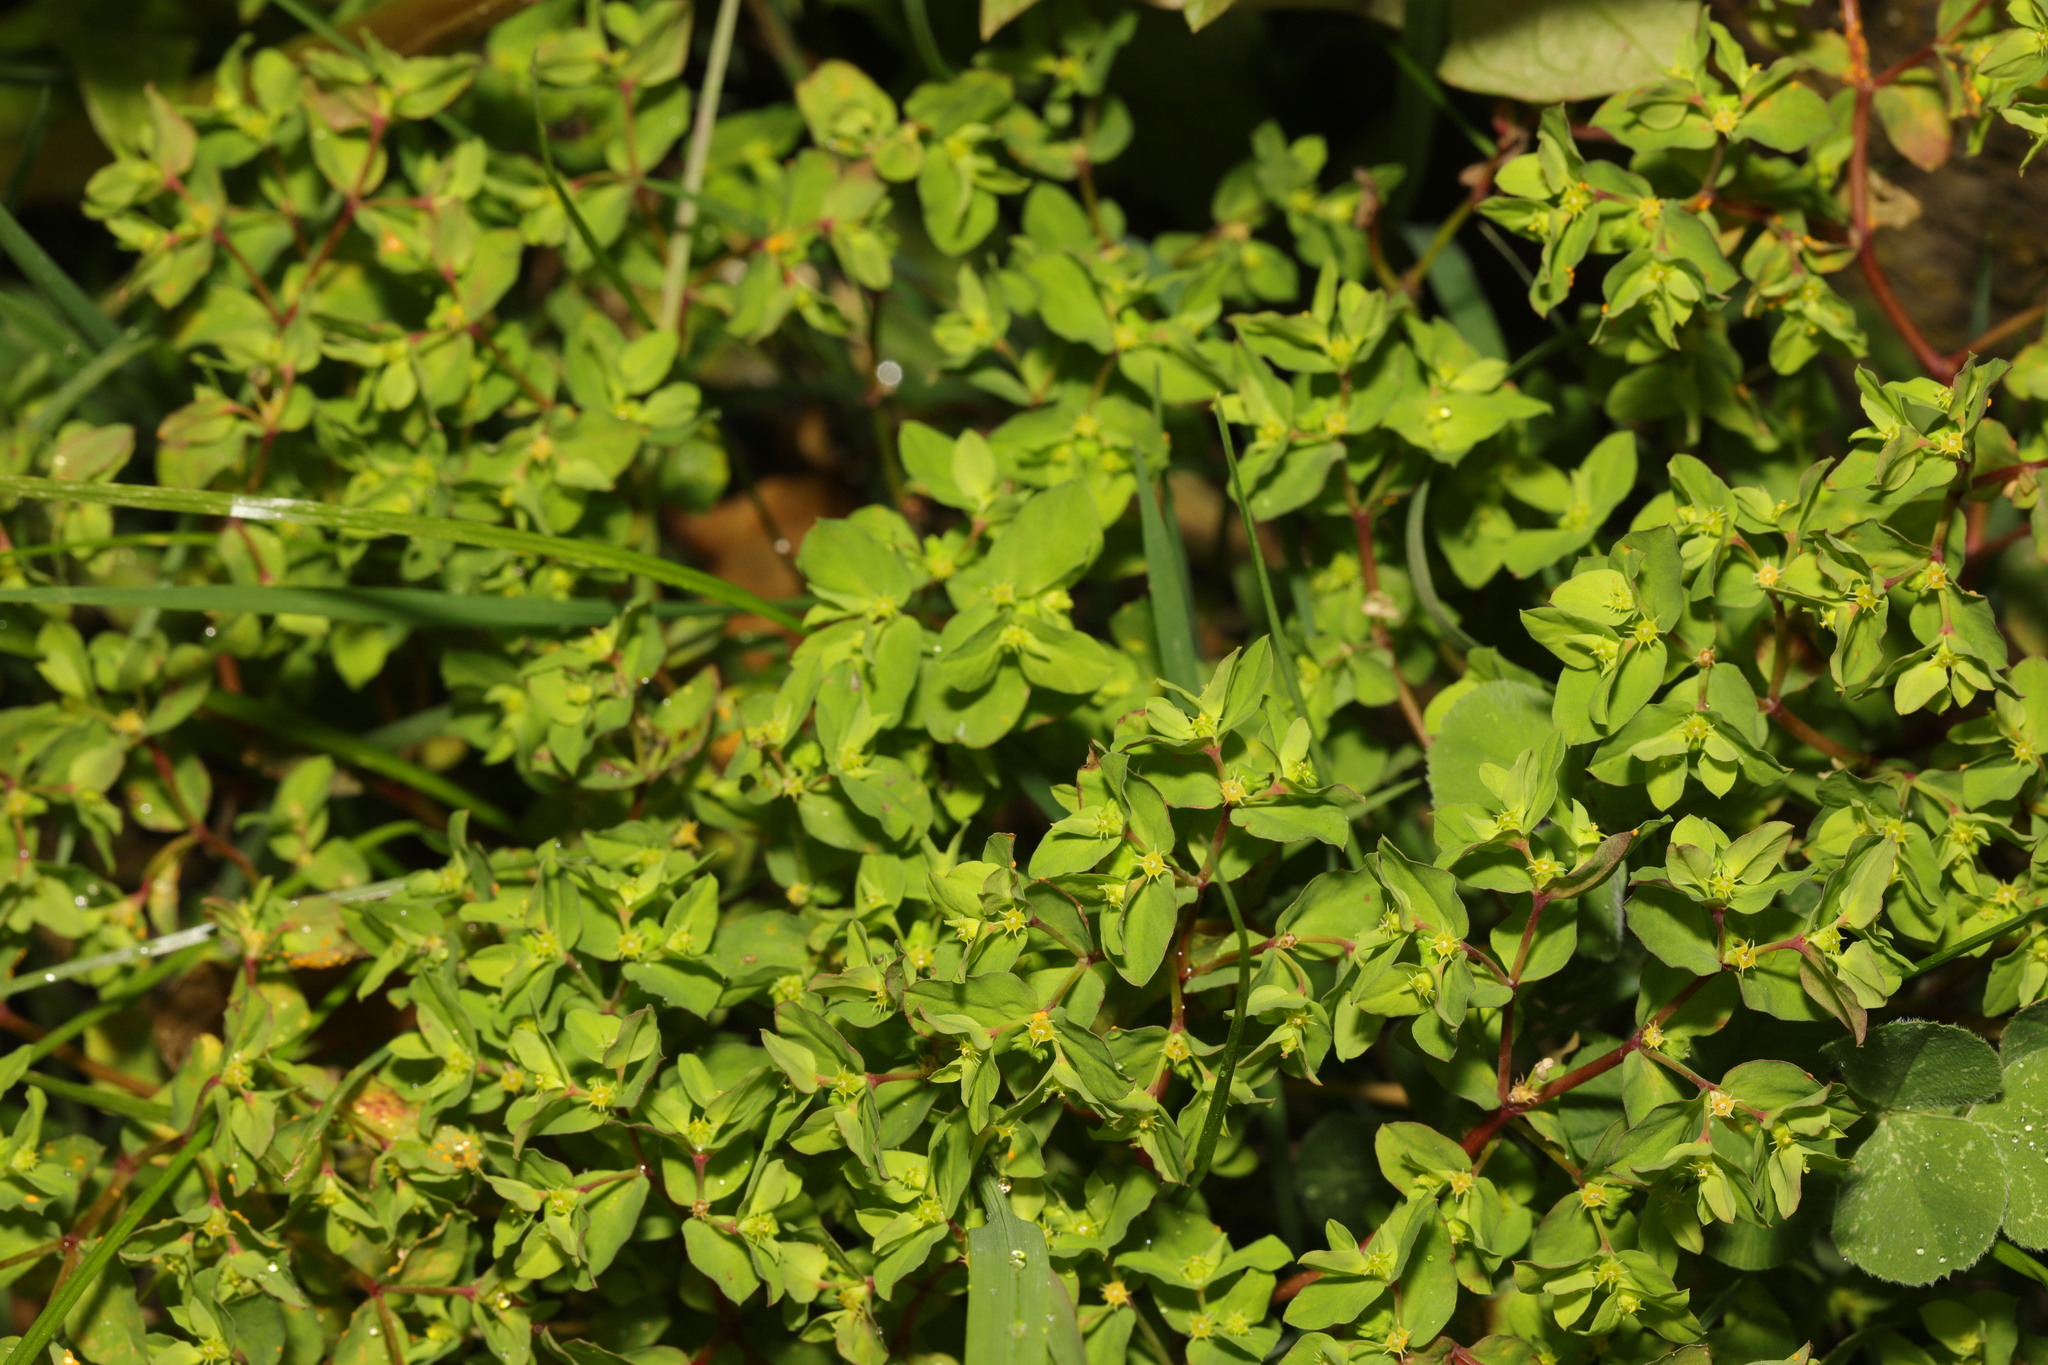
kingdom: Plantae
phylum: Tracheophyta
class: Magnoliopsida
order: Malpighiales
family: Euphorbiaceae
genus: Euphorbia
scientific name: Euphorbia peplus
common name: Petty spurge
